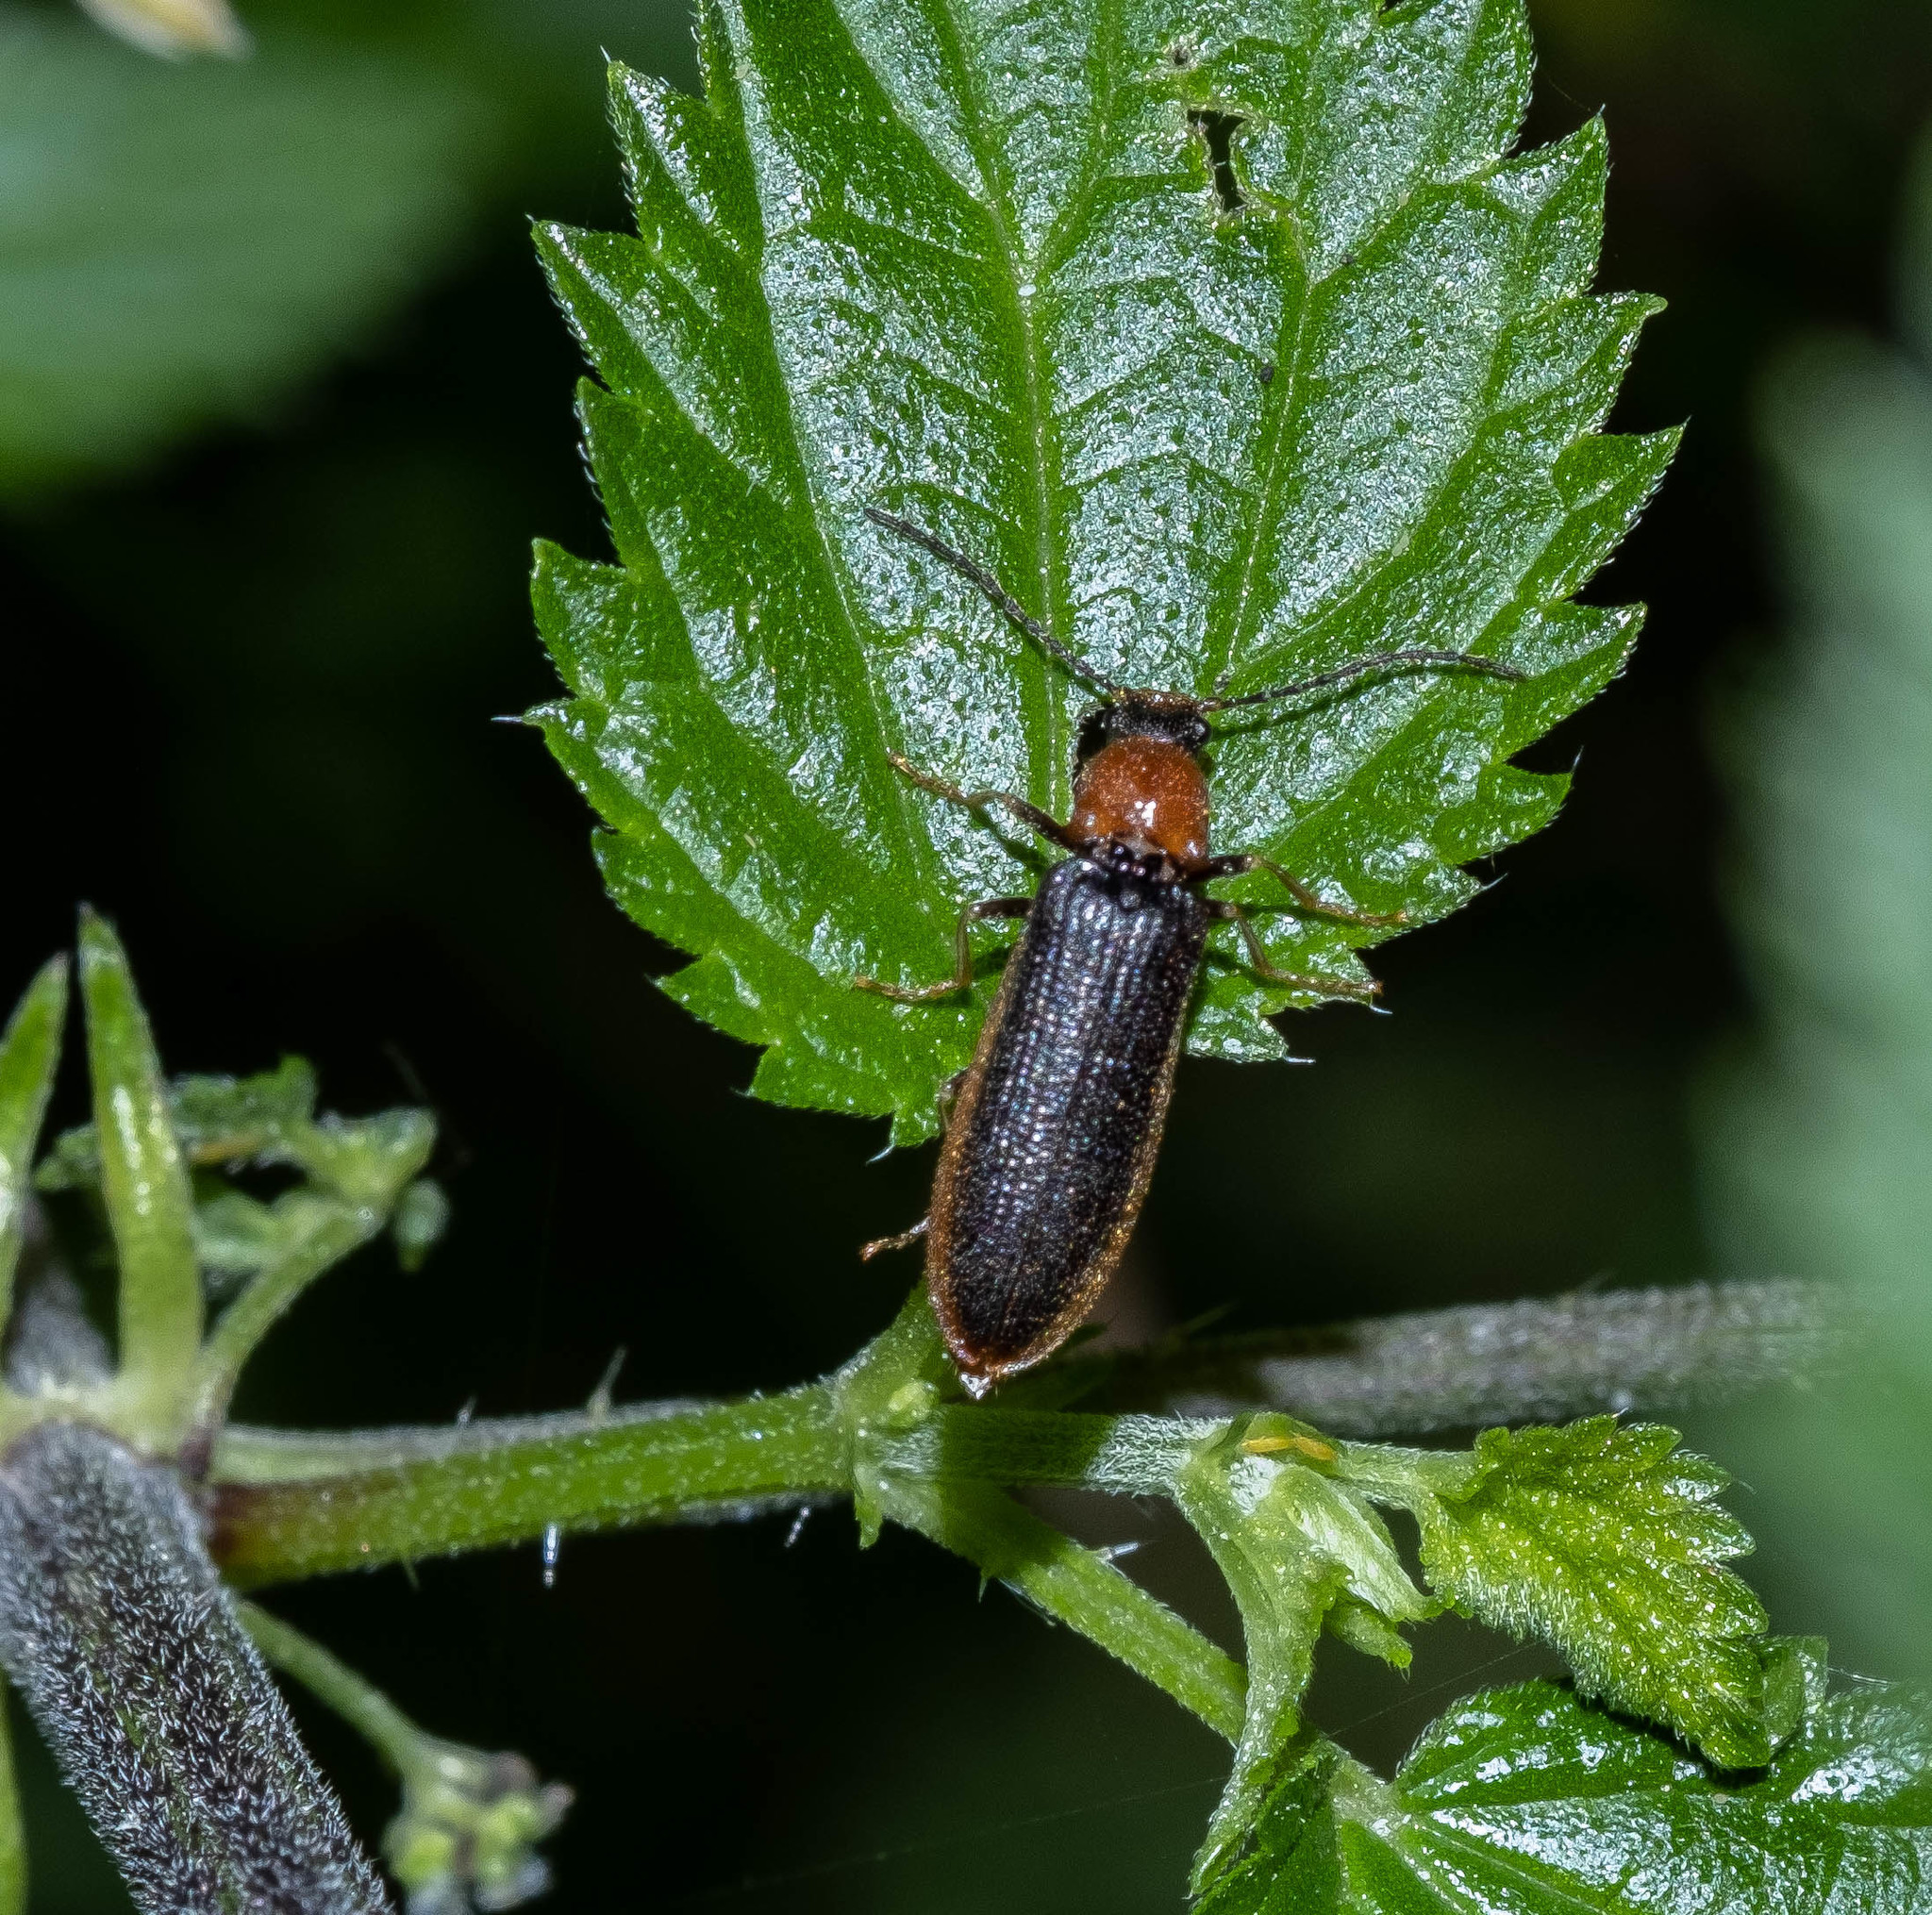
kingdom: Animalia
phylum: Arthropoda
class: Insecta
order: Coleoptera
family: Elateridae
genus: Denticollis
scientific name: Denticollis linearis
